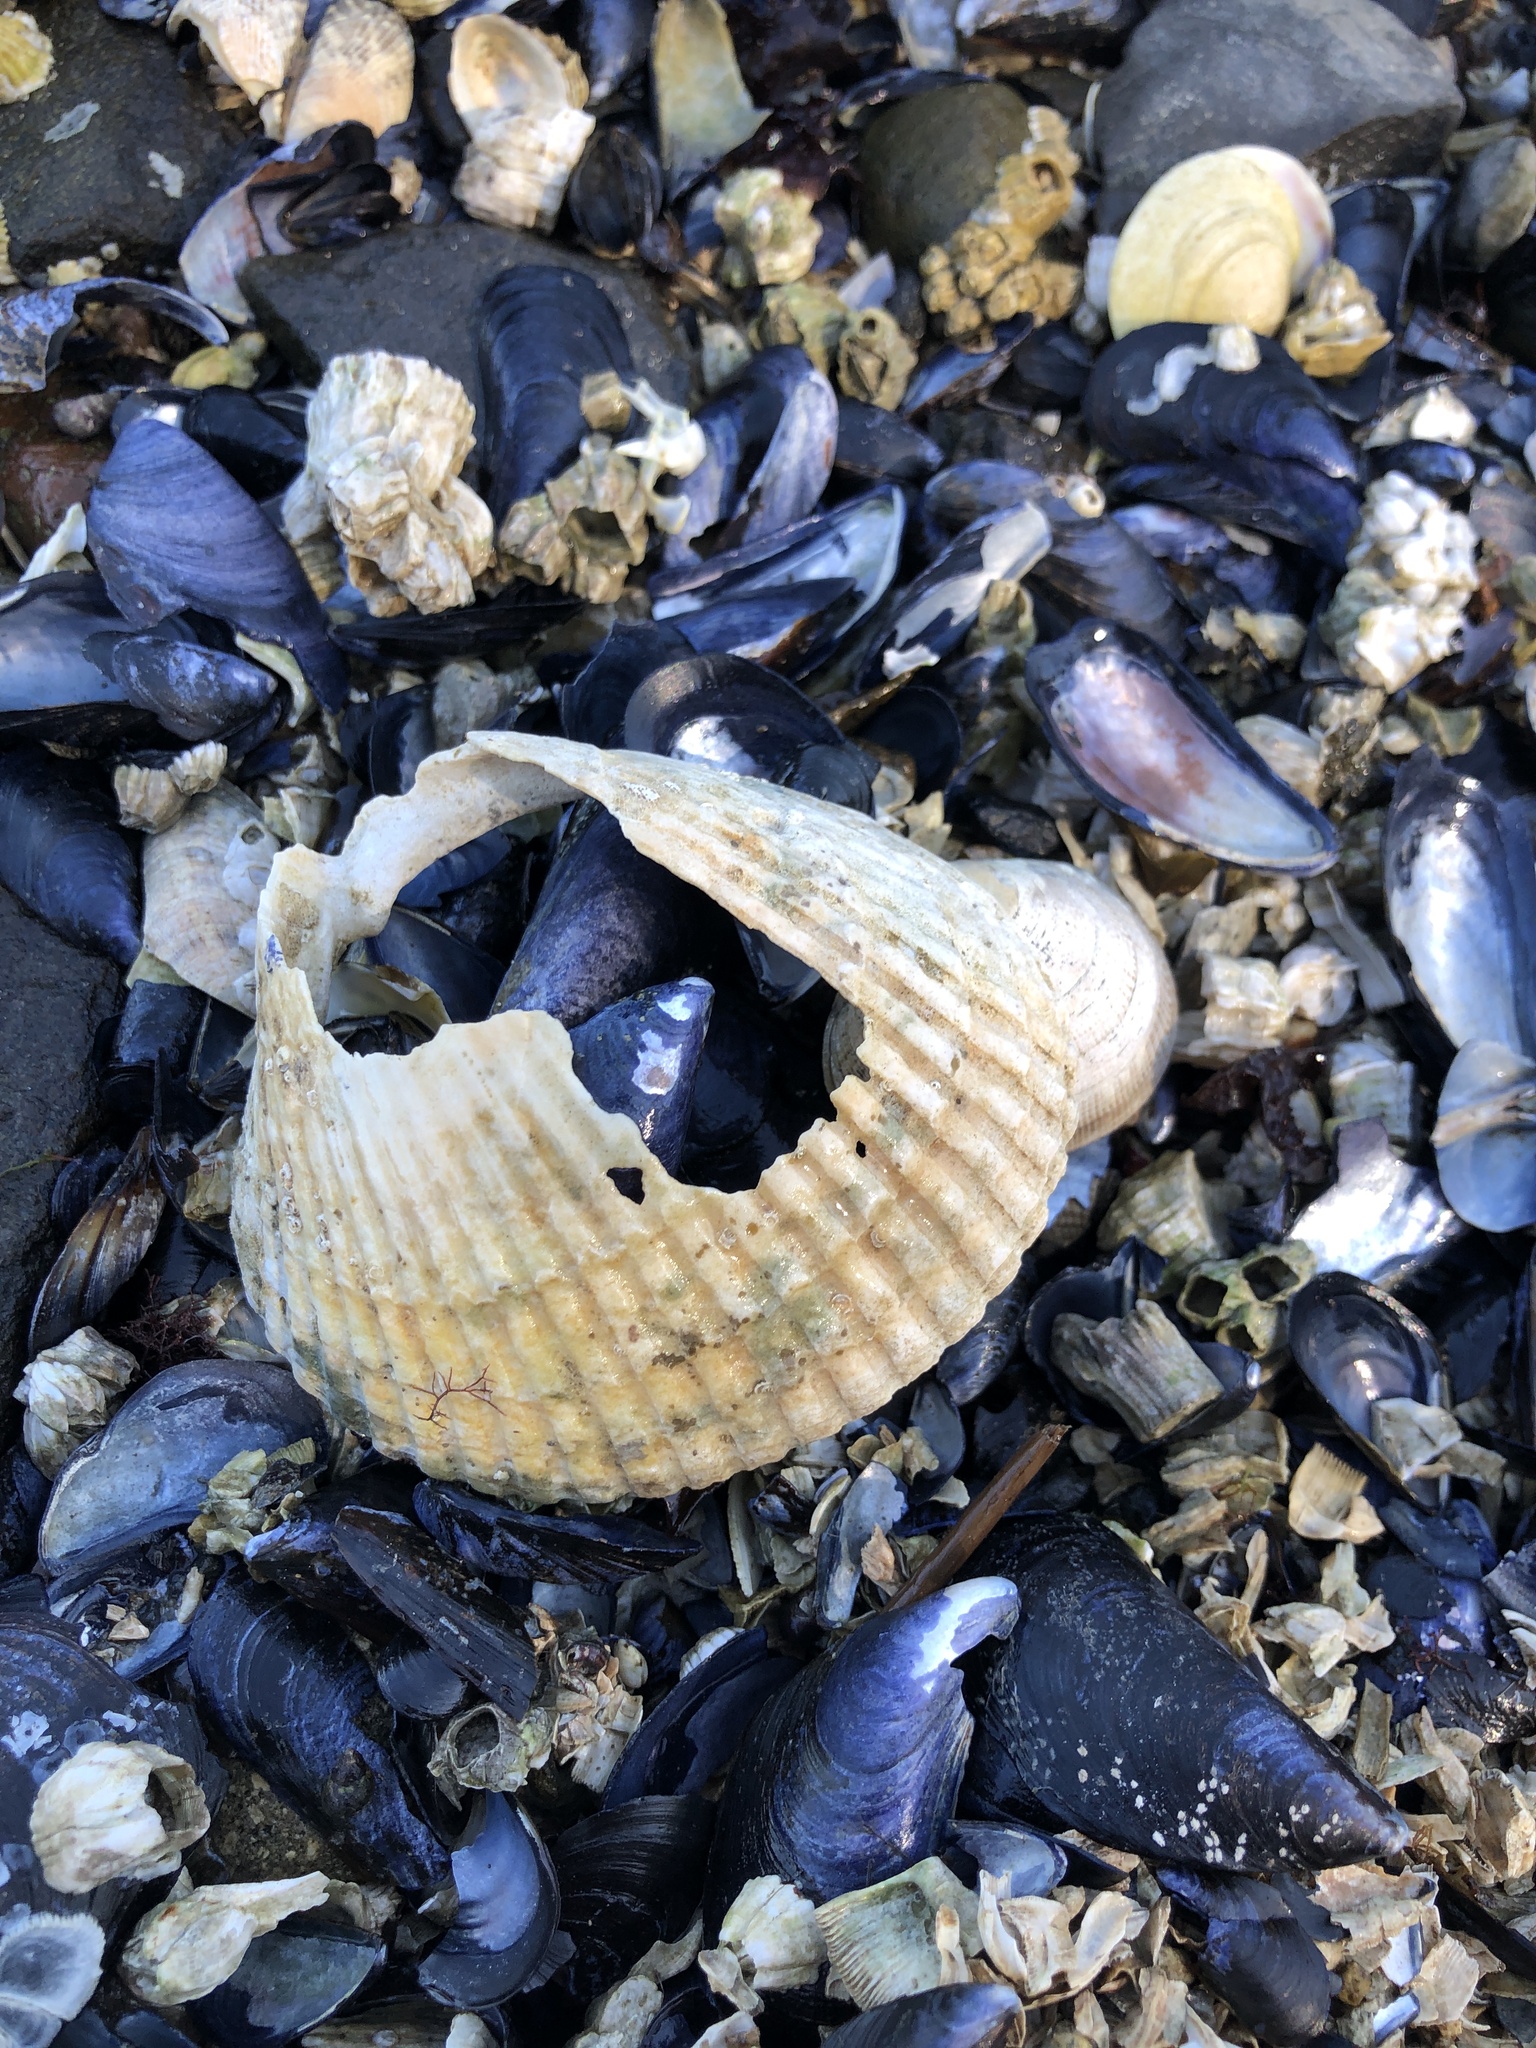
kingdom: Animalia
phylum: Mollusca
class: Bivalvia
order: Cardiida
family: Cardiidae
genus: Clinocardium
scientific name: Clinocardium nuttallii
